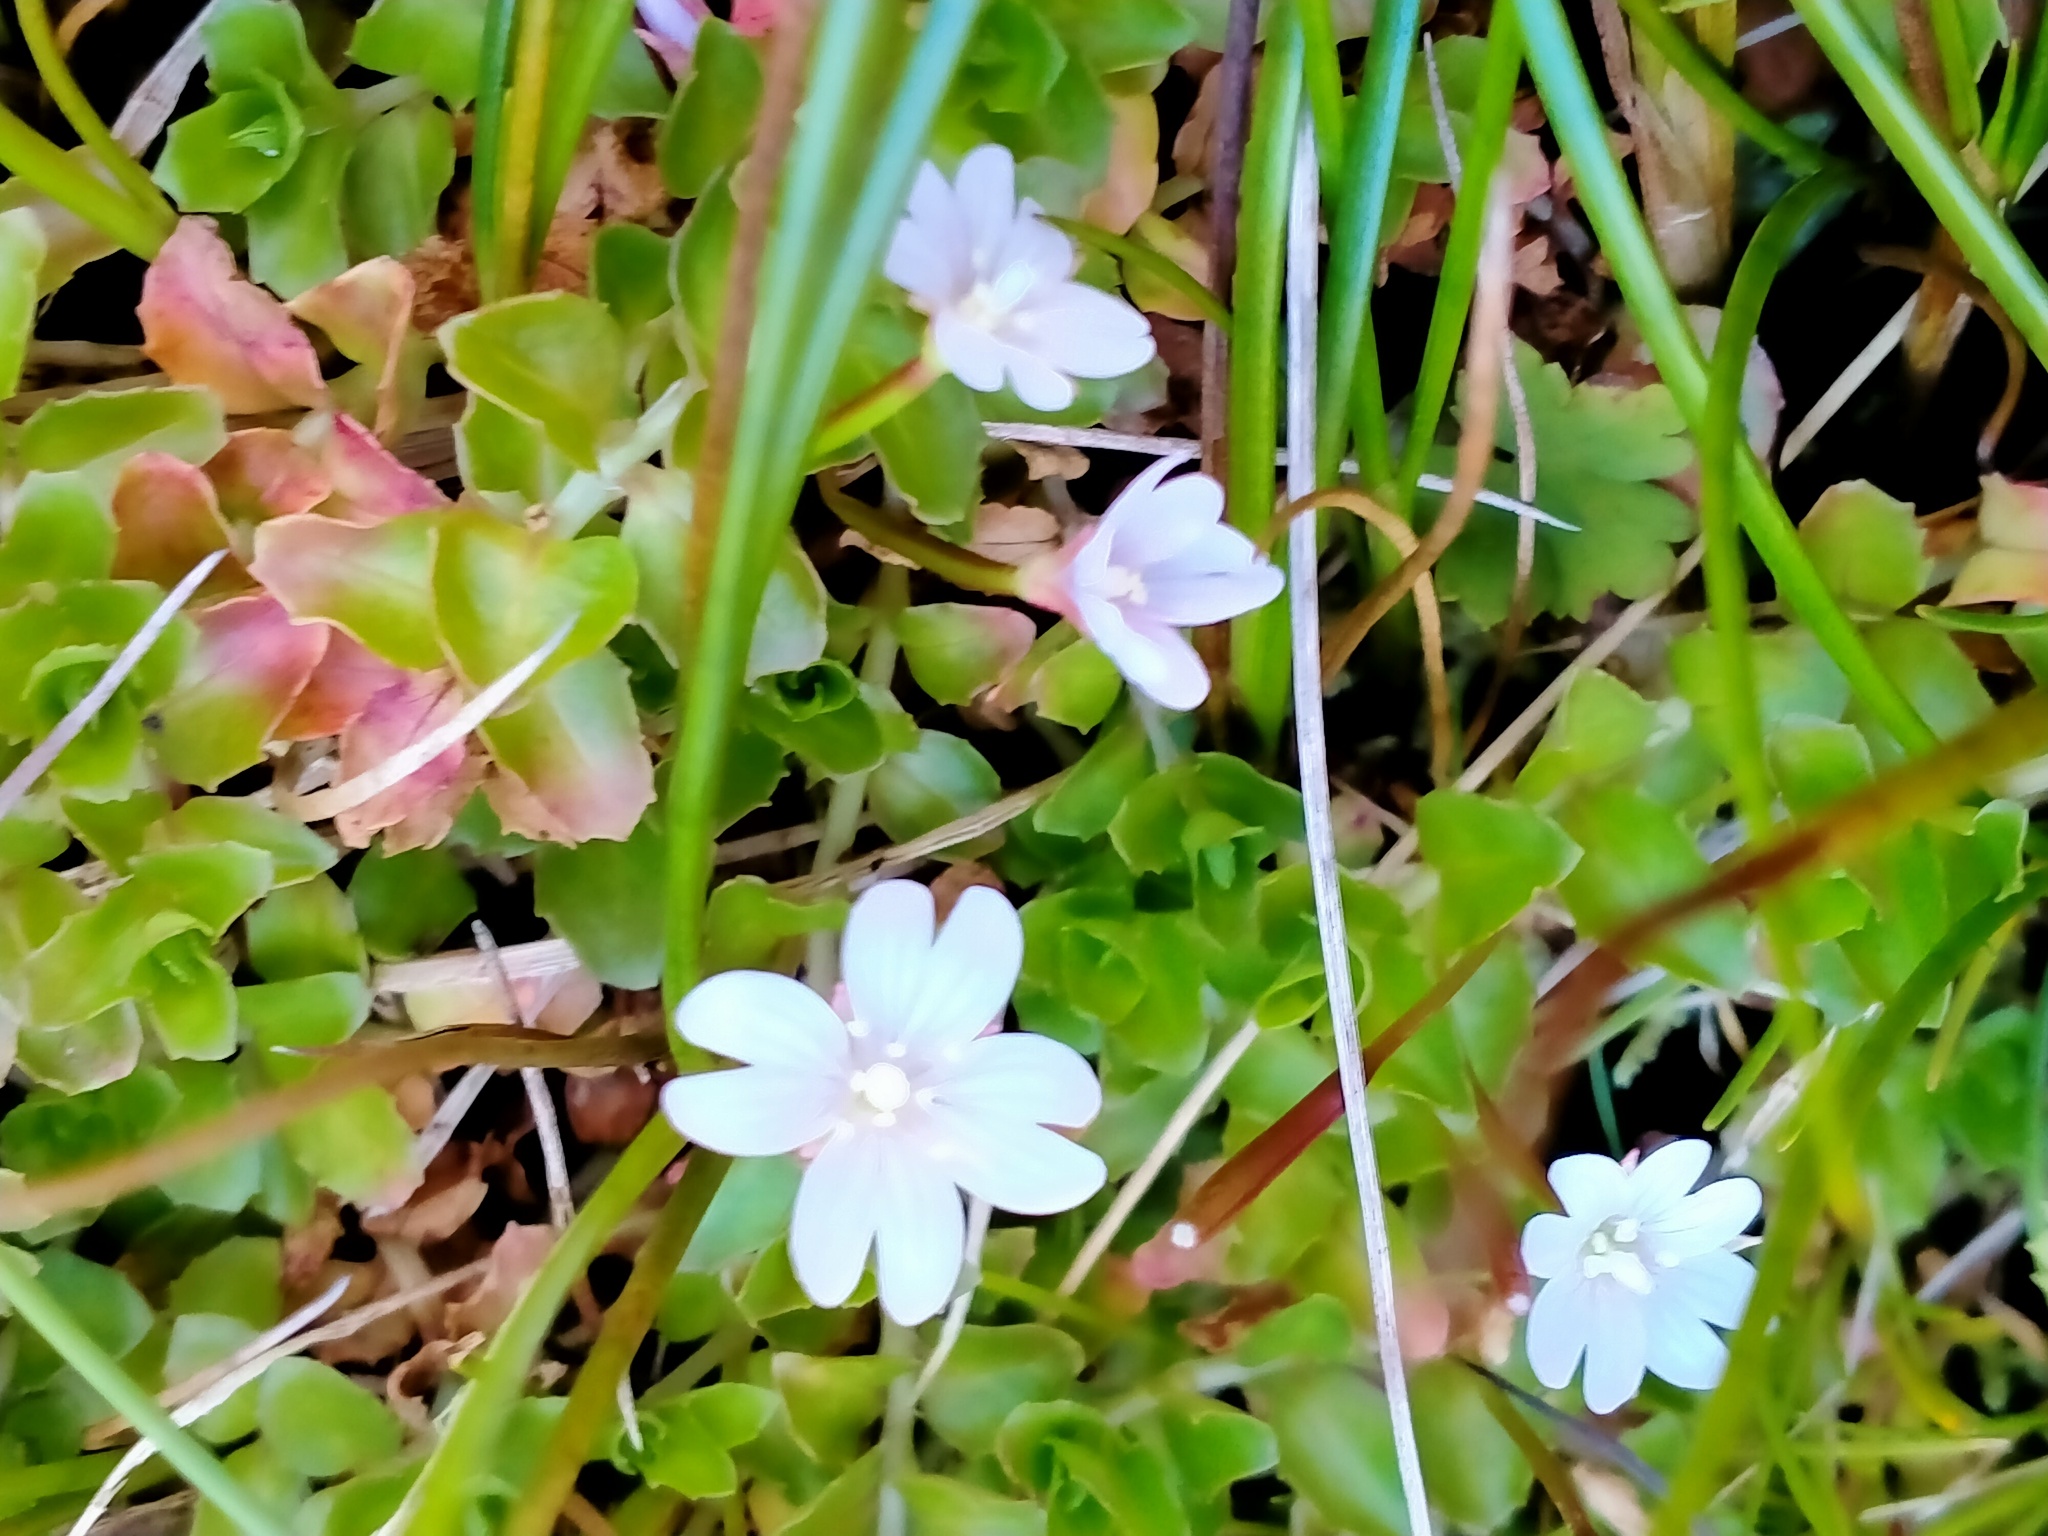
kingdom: Plantae
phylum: Tracheophyta
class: Magnoliopsida
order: Myrtales
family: Onagraceae
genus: Epilobium
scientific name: Epilobium pedunculare
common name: Rockery willowherb
